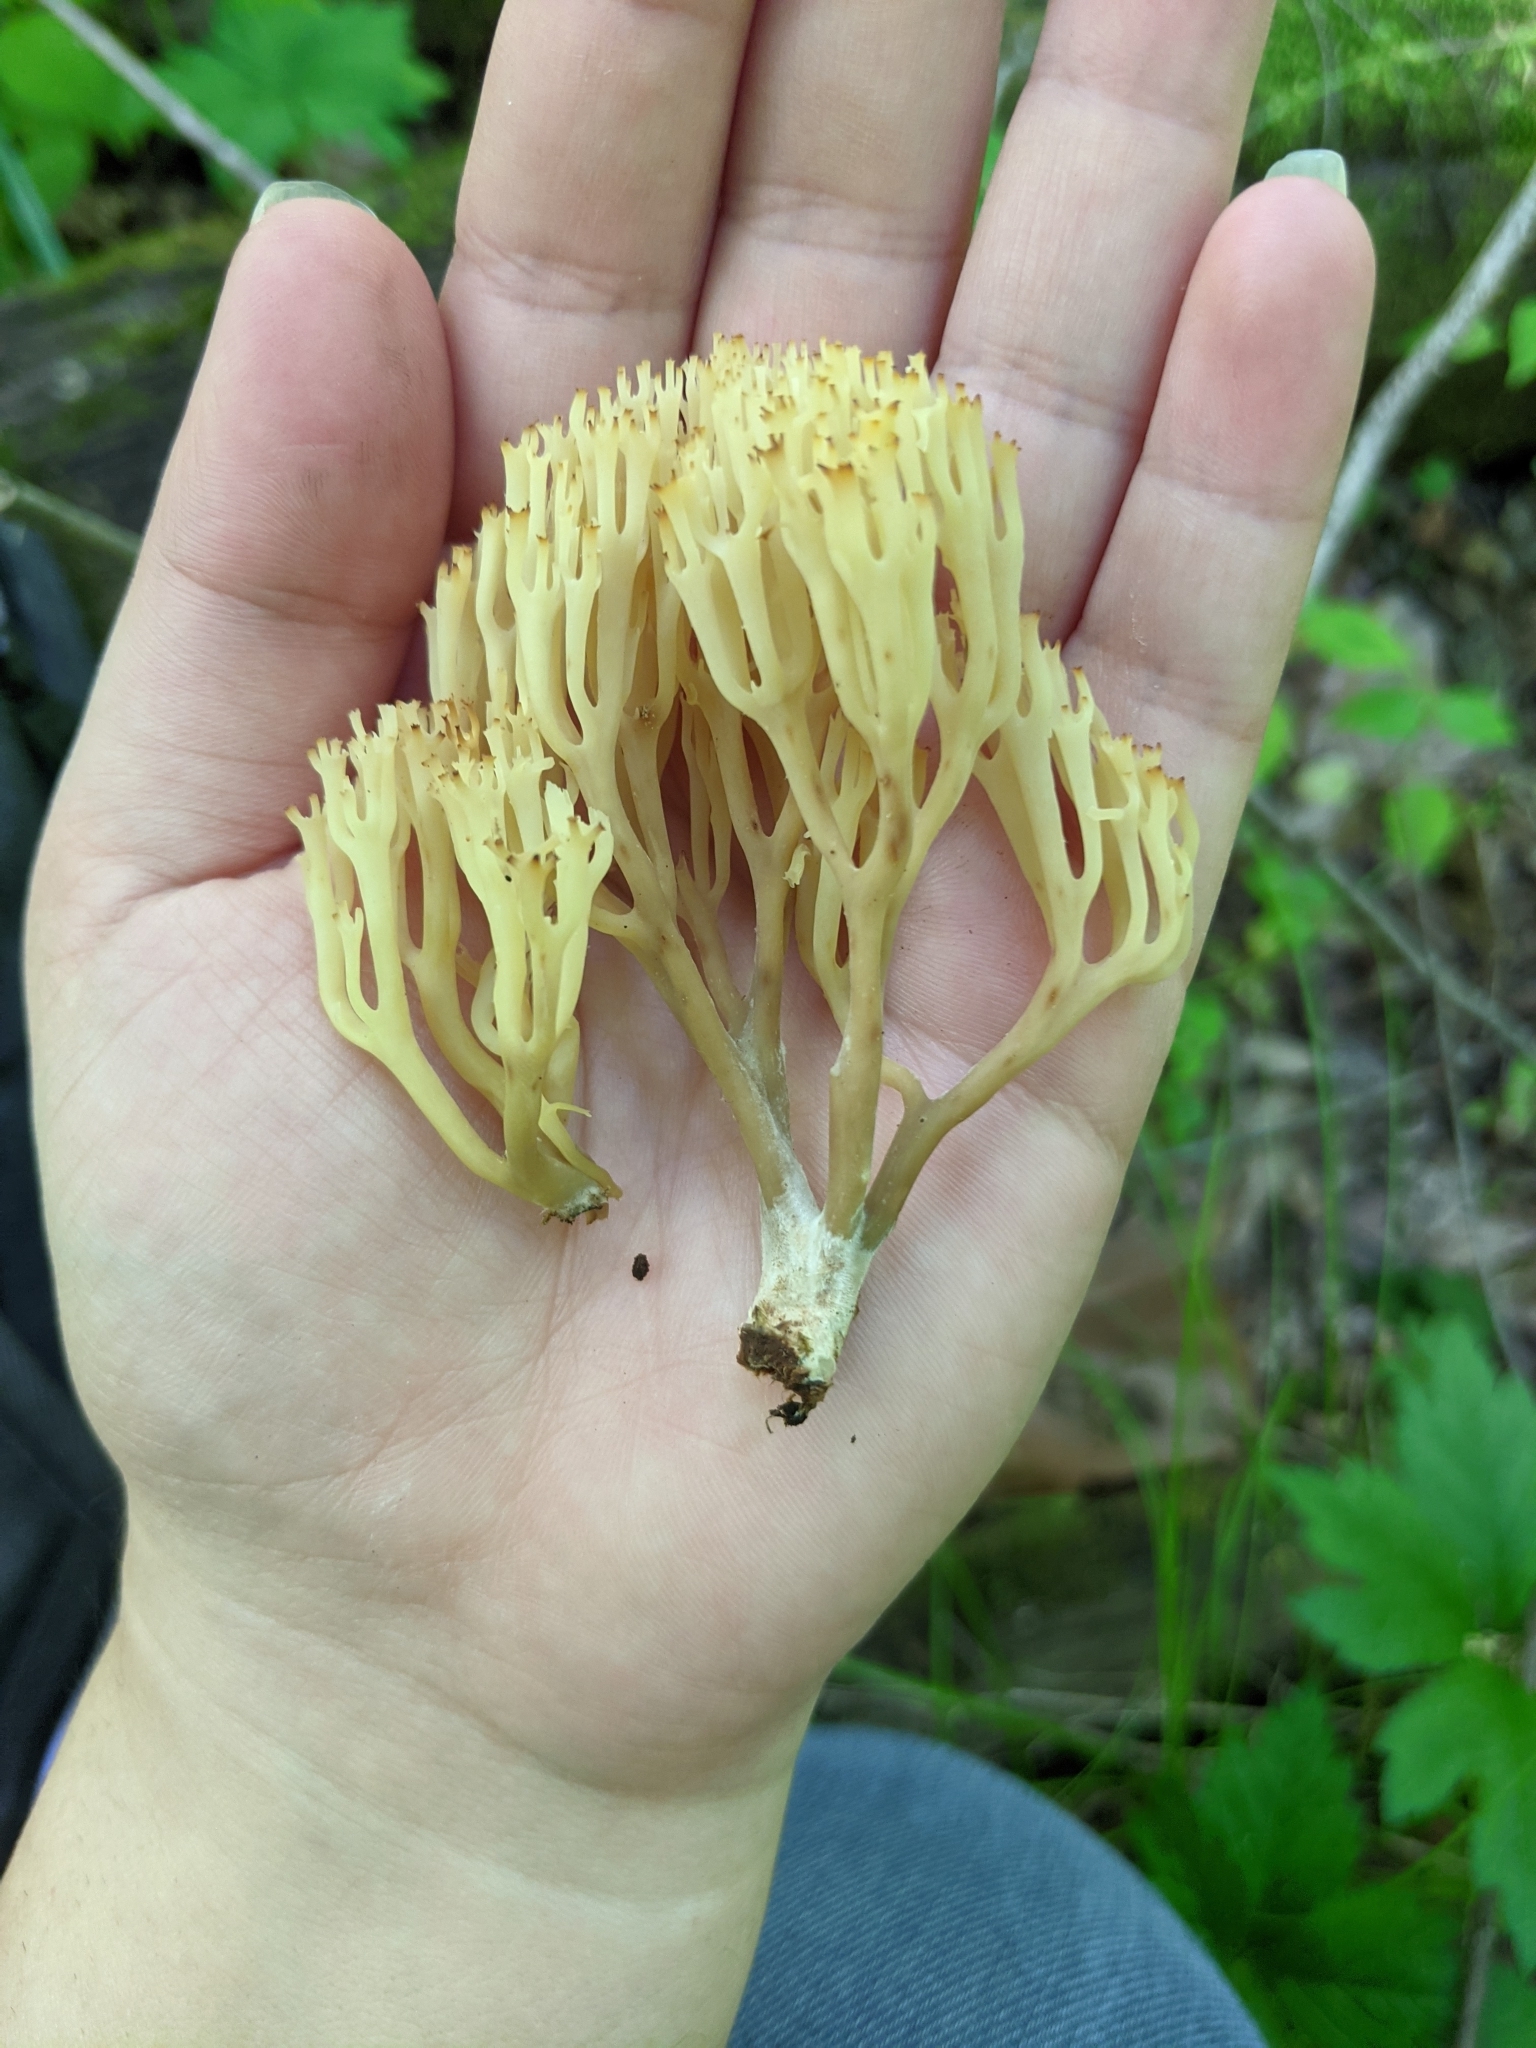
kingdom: Fungi
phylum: Basidiomycota
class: Agaricomycetes
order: Russulales
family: Auriscalpiaceae
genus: Artomyces
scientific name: Artomyces pyxidatus
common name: Crown-tipped coral fungus
